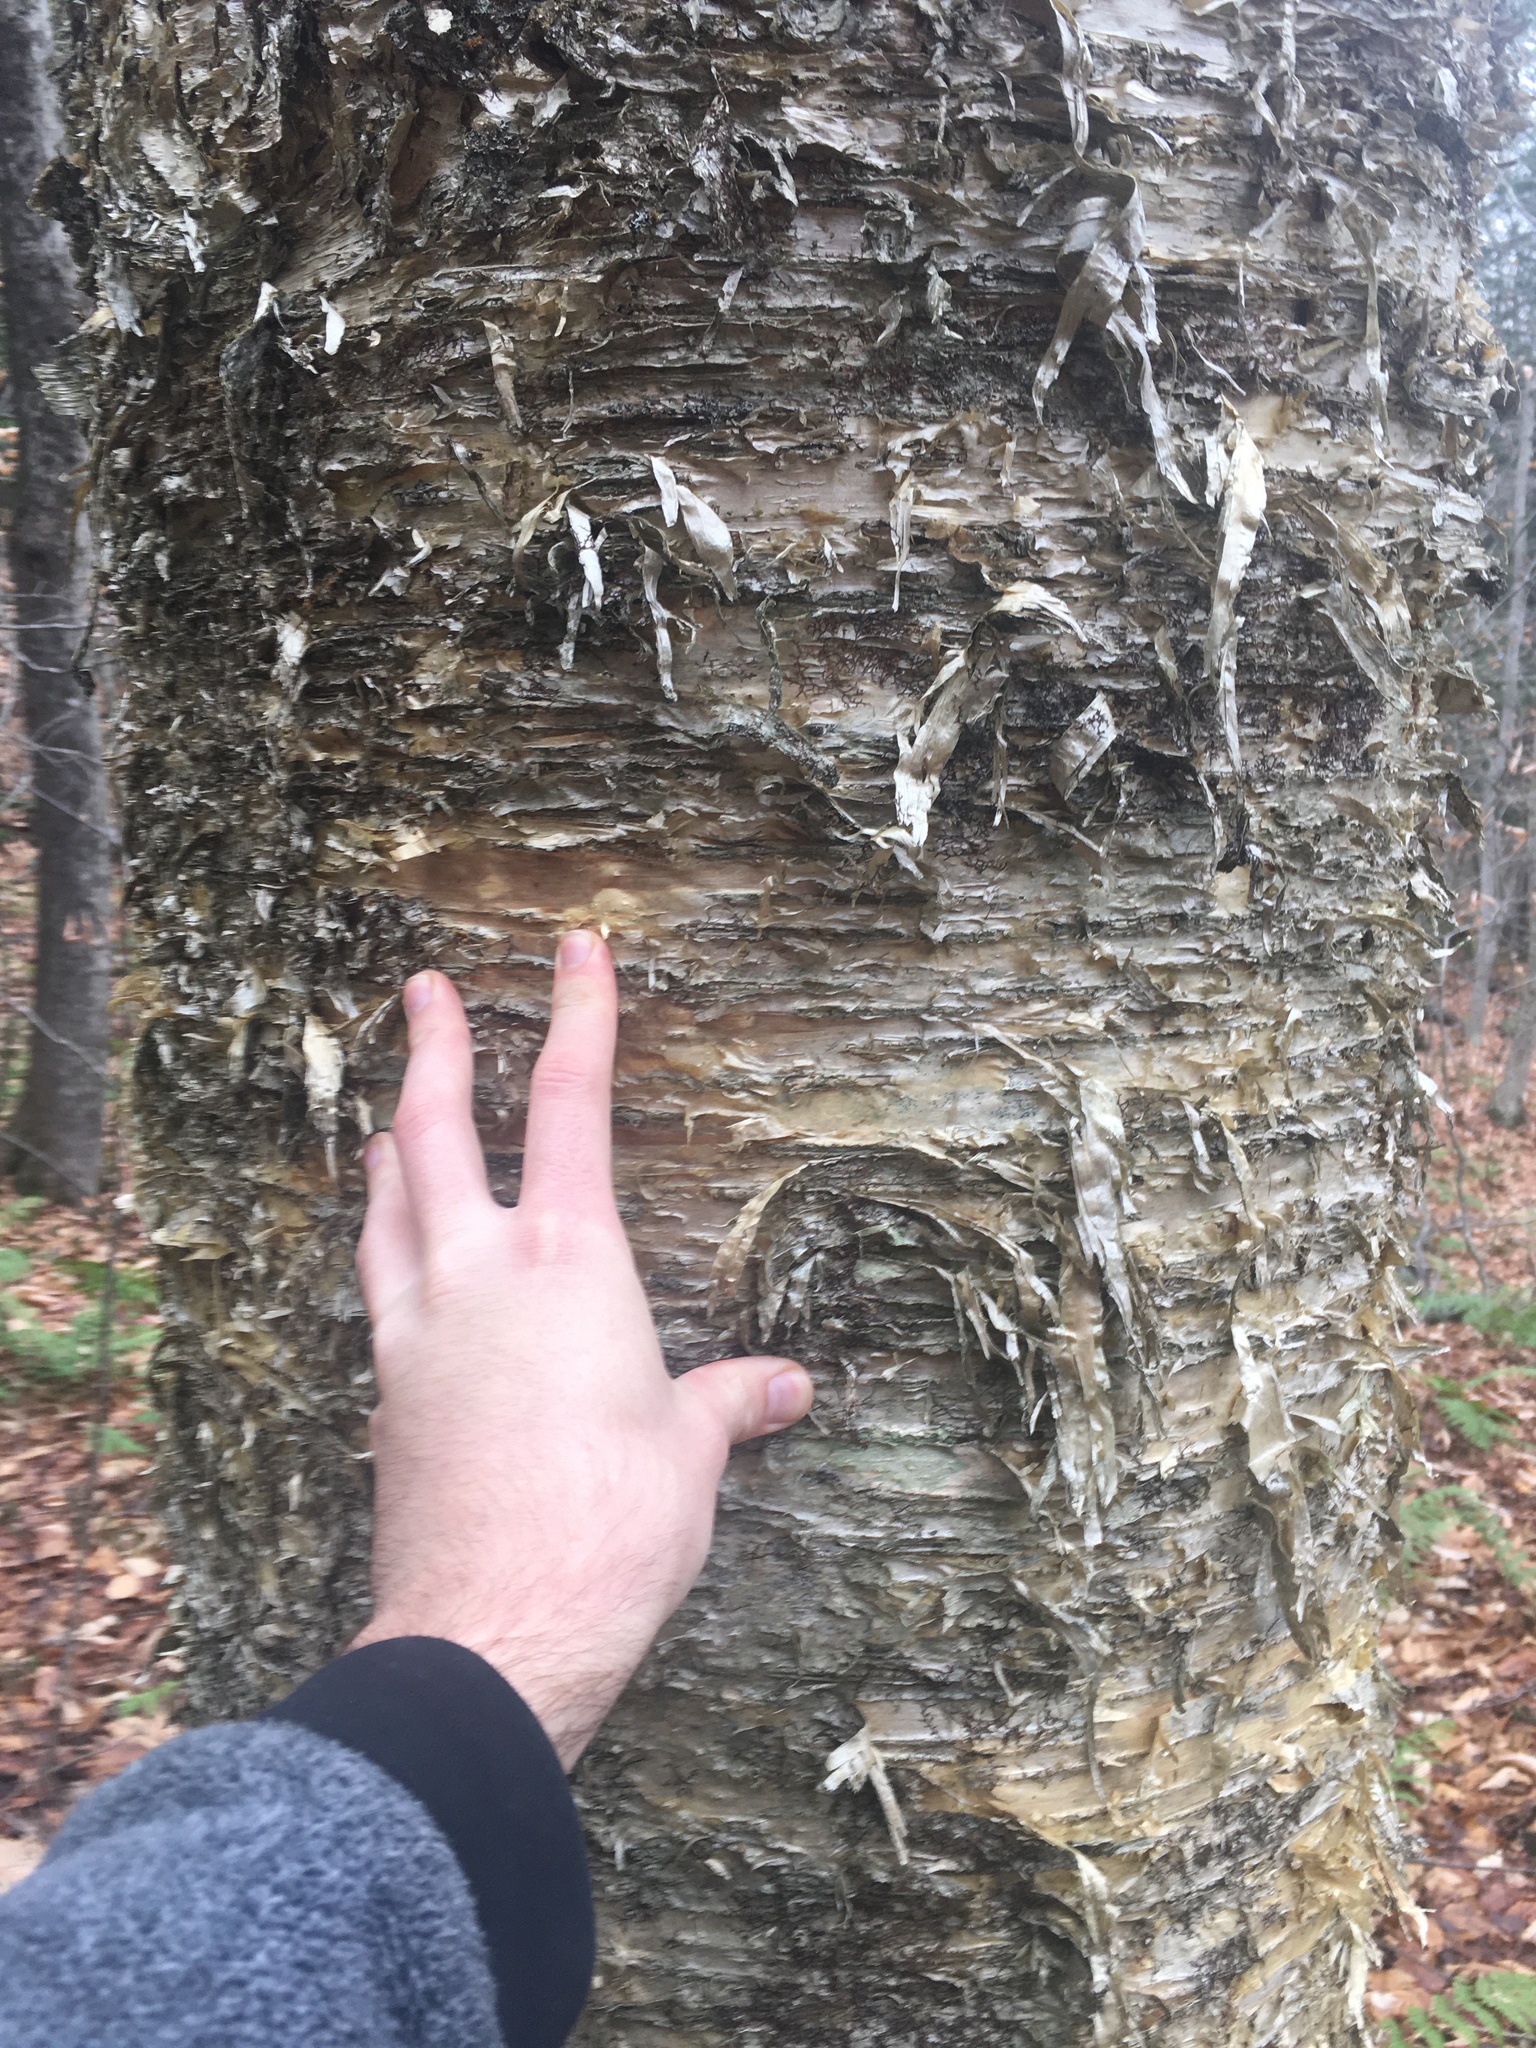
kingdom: Plantae
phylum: Tracheophyta
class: Magnoliopsida
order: Fagales
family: Betulaceae
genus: Betula
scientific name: Betula alleghaniensis
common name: Yellow birch
